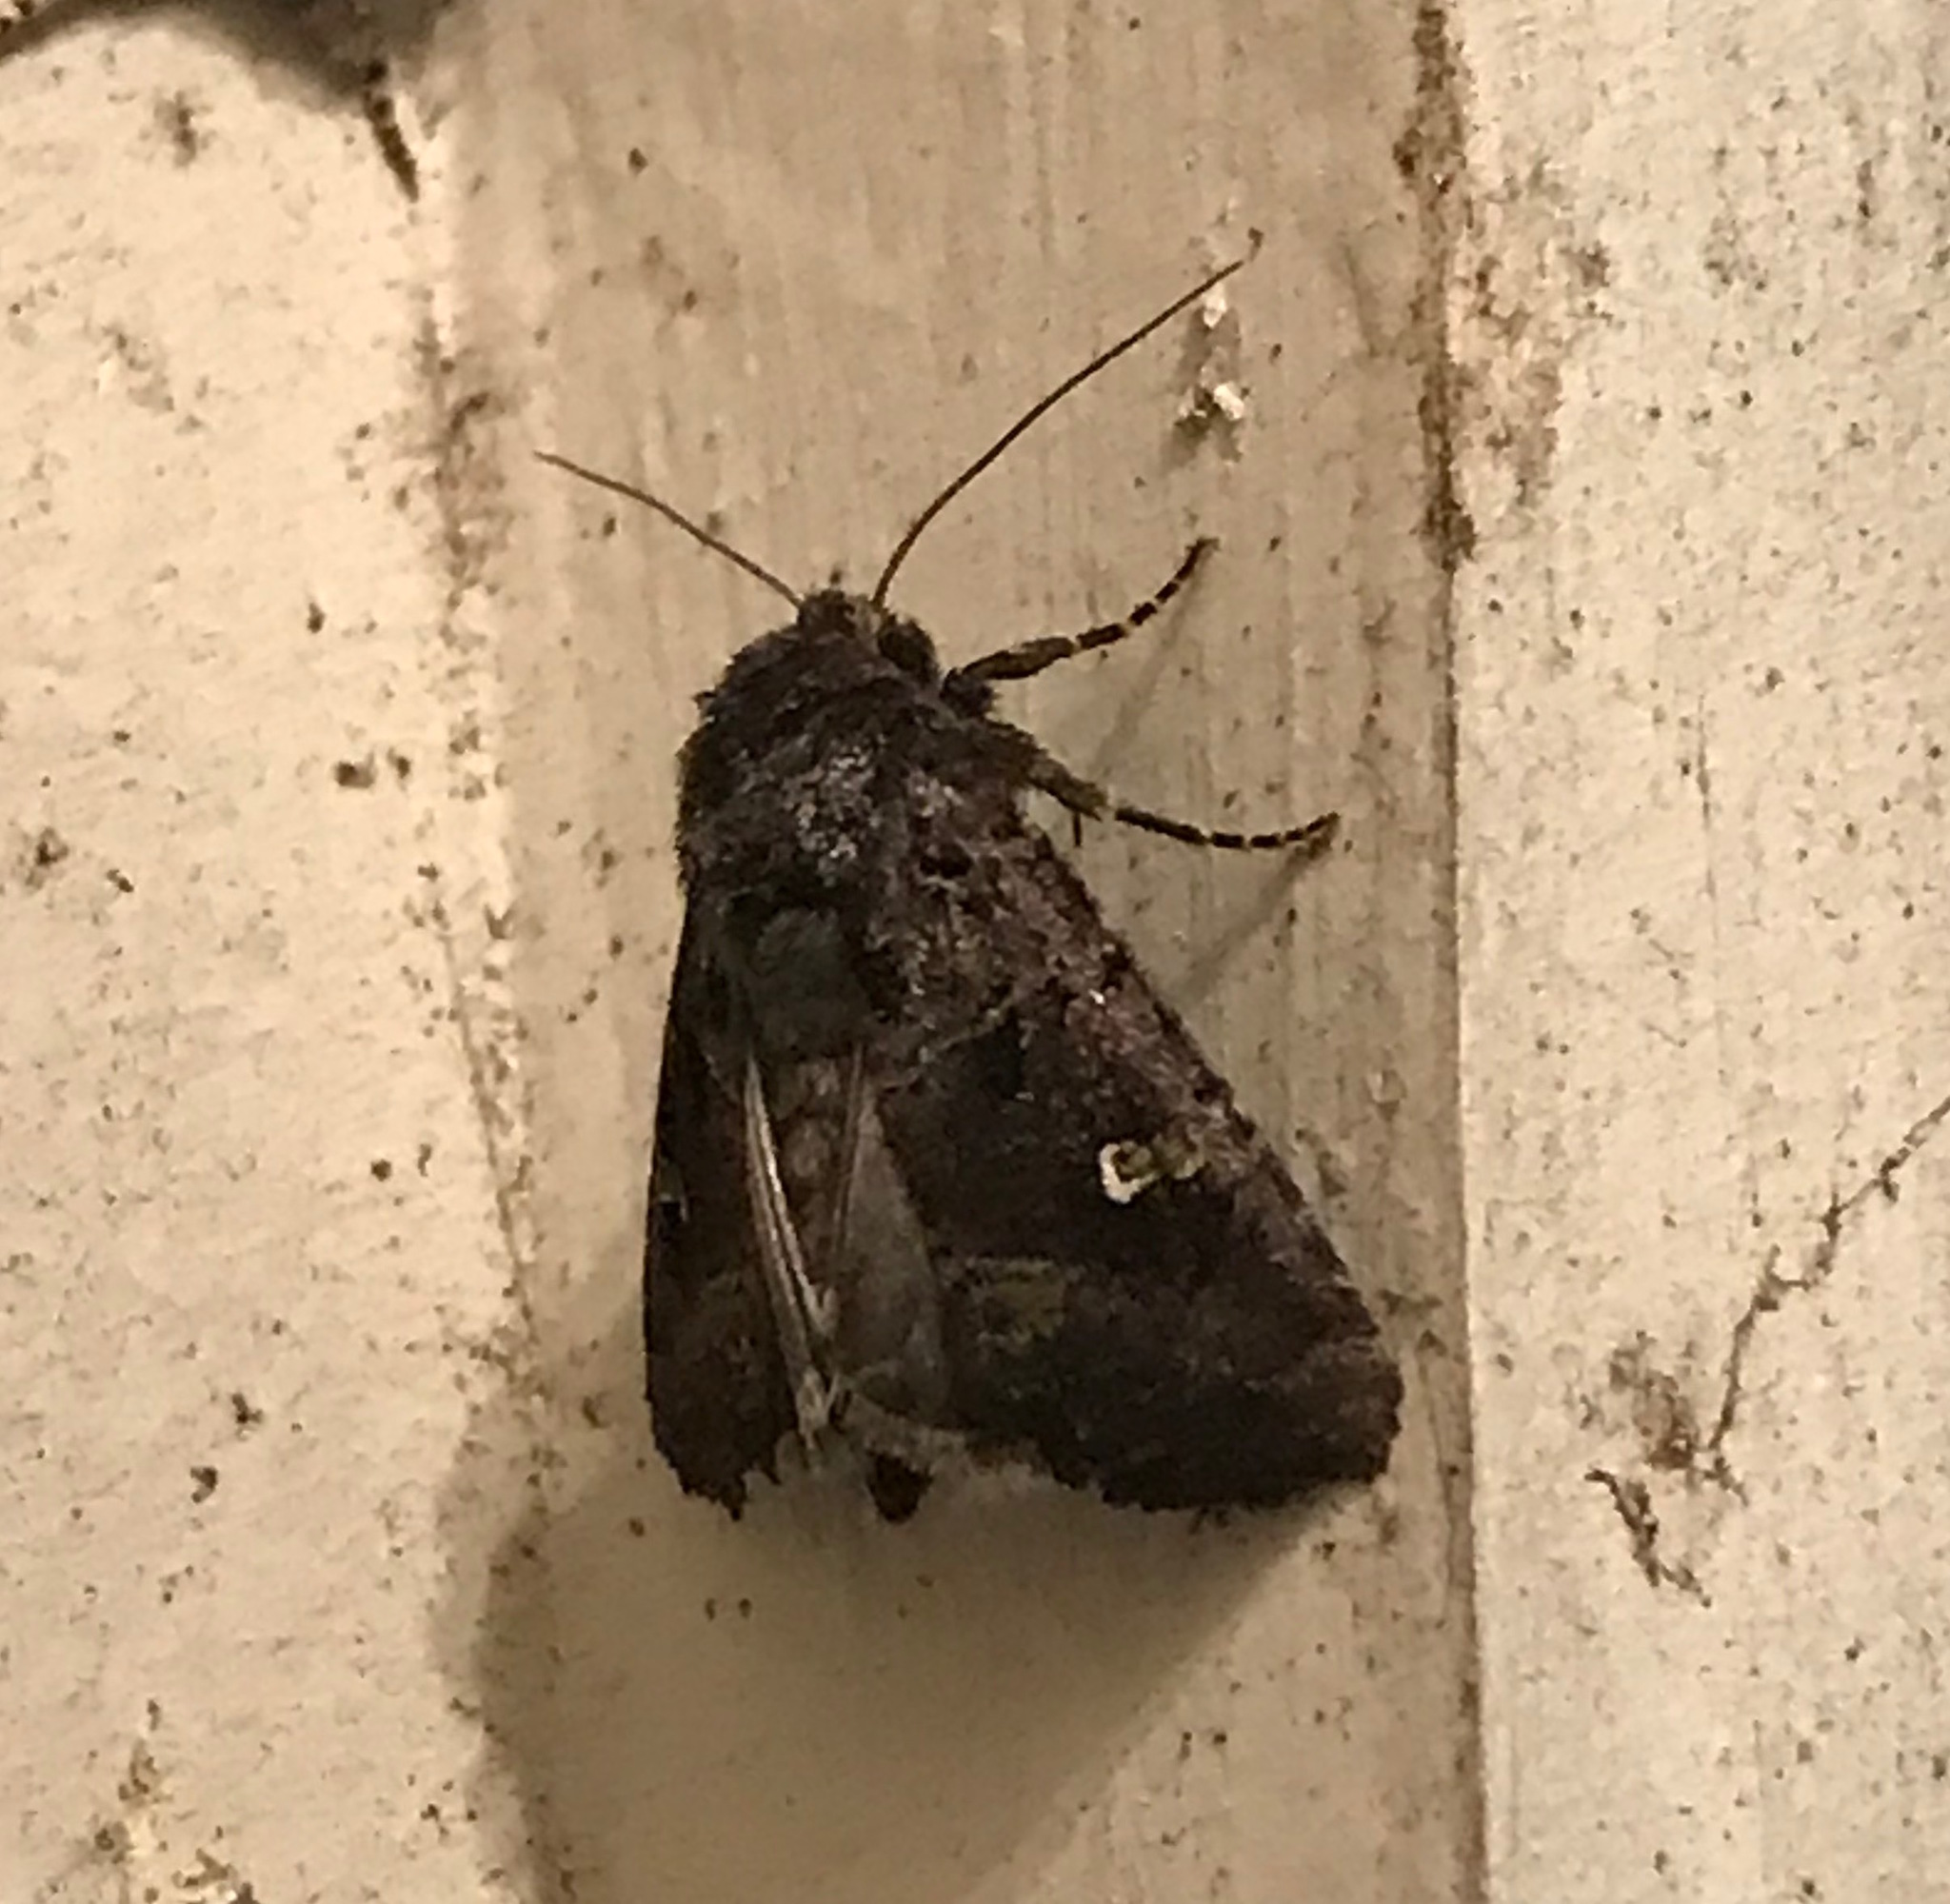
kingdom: Animalia
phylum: Arthropoda
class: Insecta
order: Lepidoptera
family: Noctuidae
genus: Lacinipolia
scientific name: Lacinipolia renigera
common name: Kidney-spotted minor
